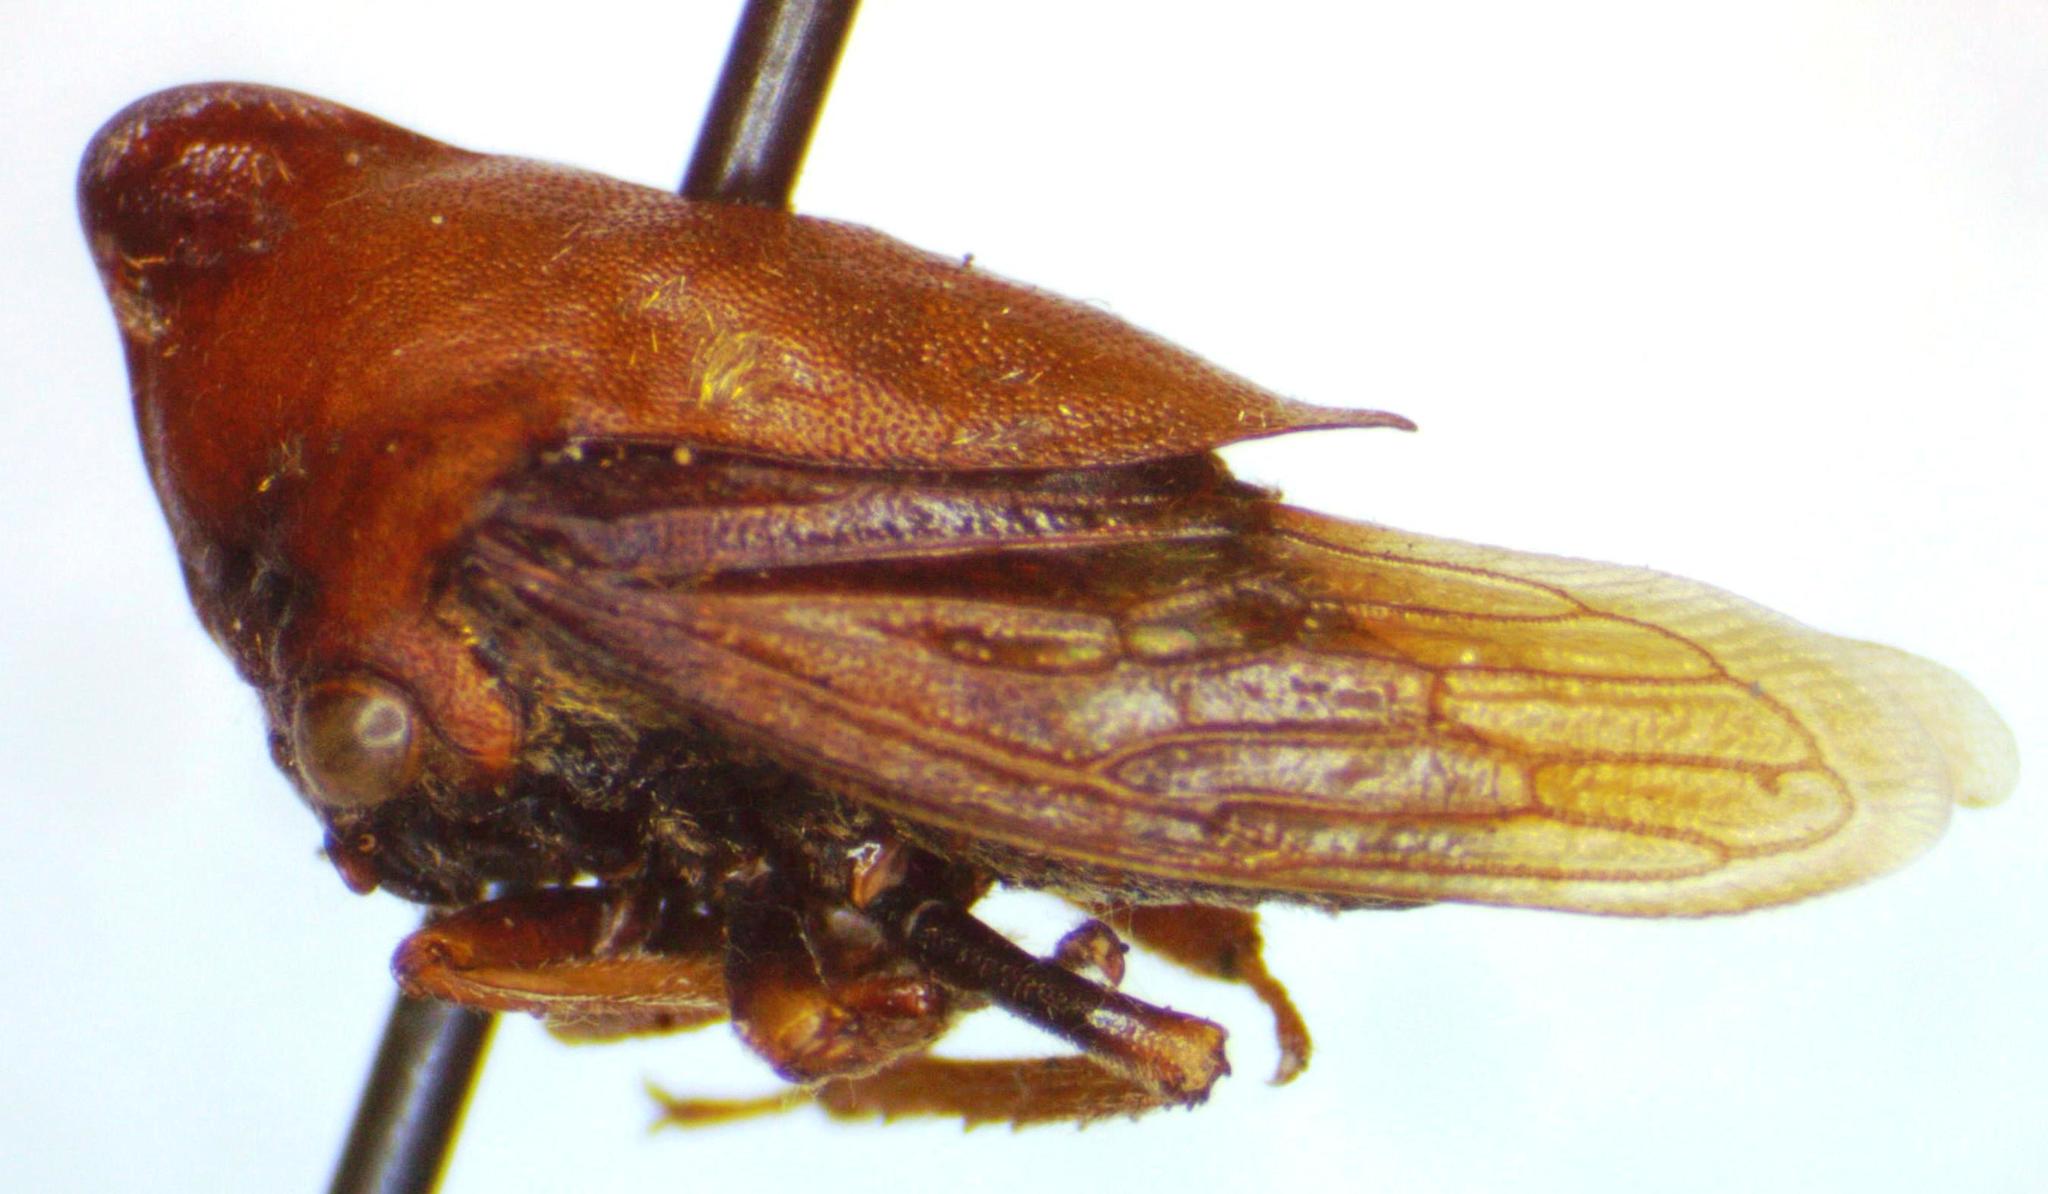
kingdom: Animalia
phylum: Arthropoda
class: Insecta
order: Hemiptera
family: Membracidae
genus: Guayaquila
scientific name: Guayaquila obesa
